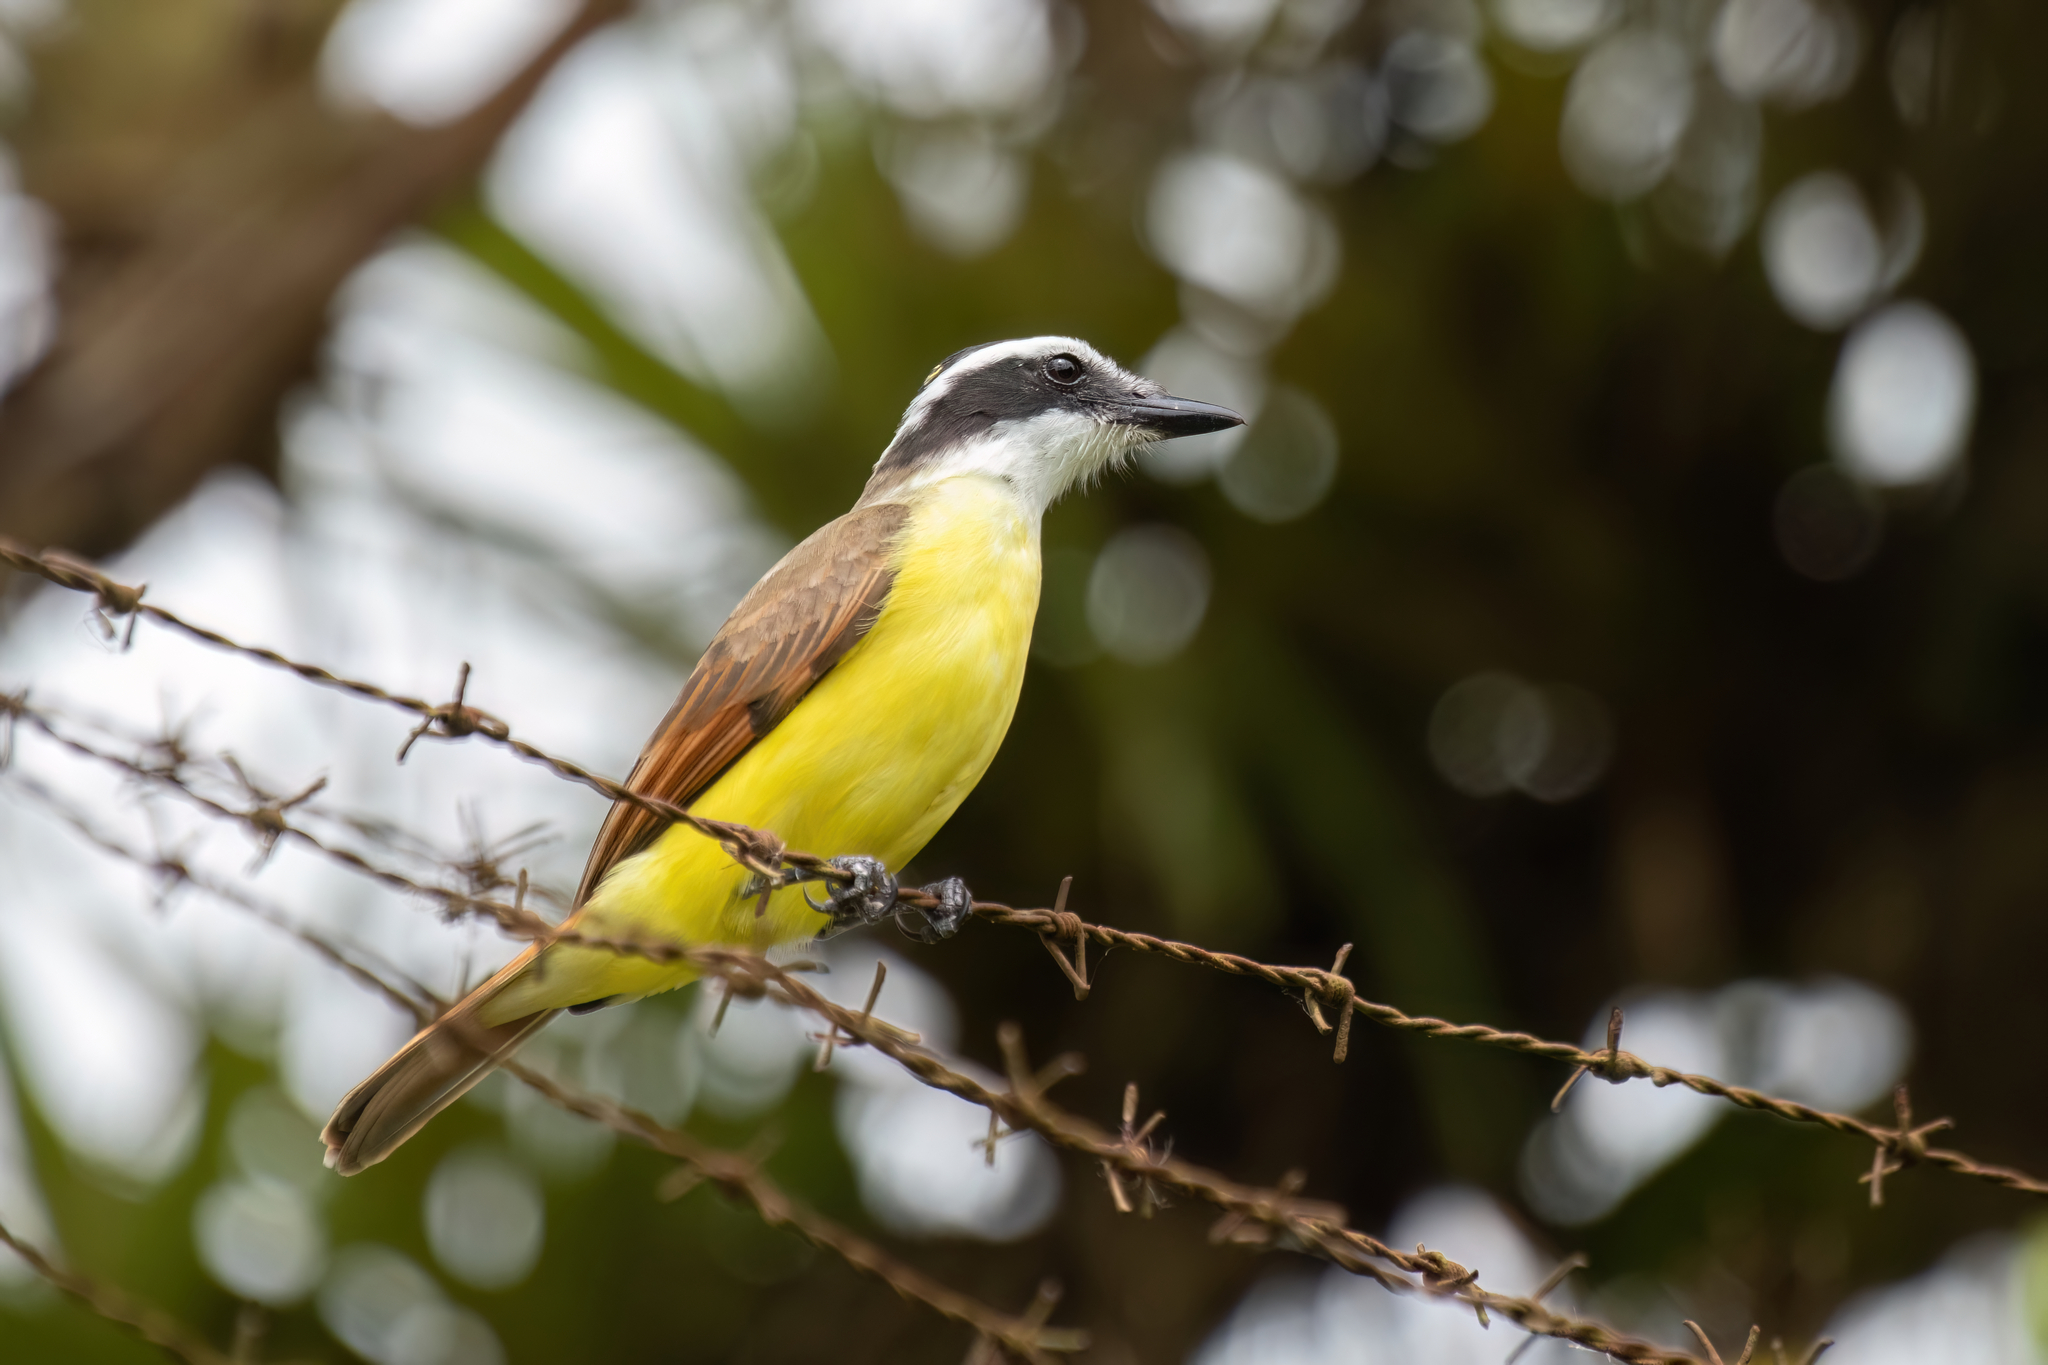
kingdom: Animalia
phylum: Chordata
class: Aves
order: Passeriformes
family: Tyrannidae
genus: Pitangus
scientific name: Pitangus sulphuratus
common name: Great kiskadee
